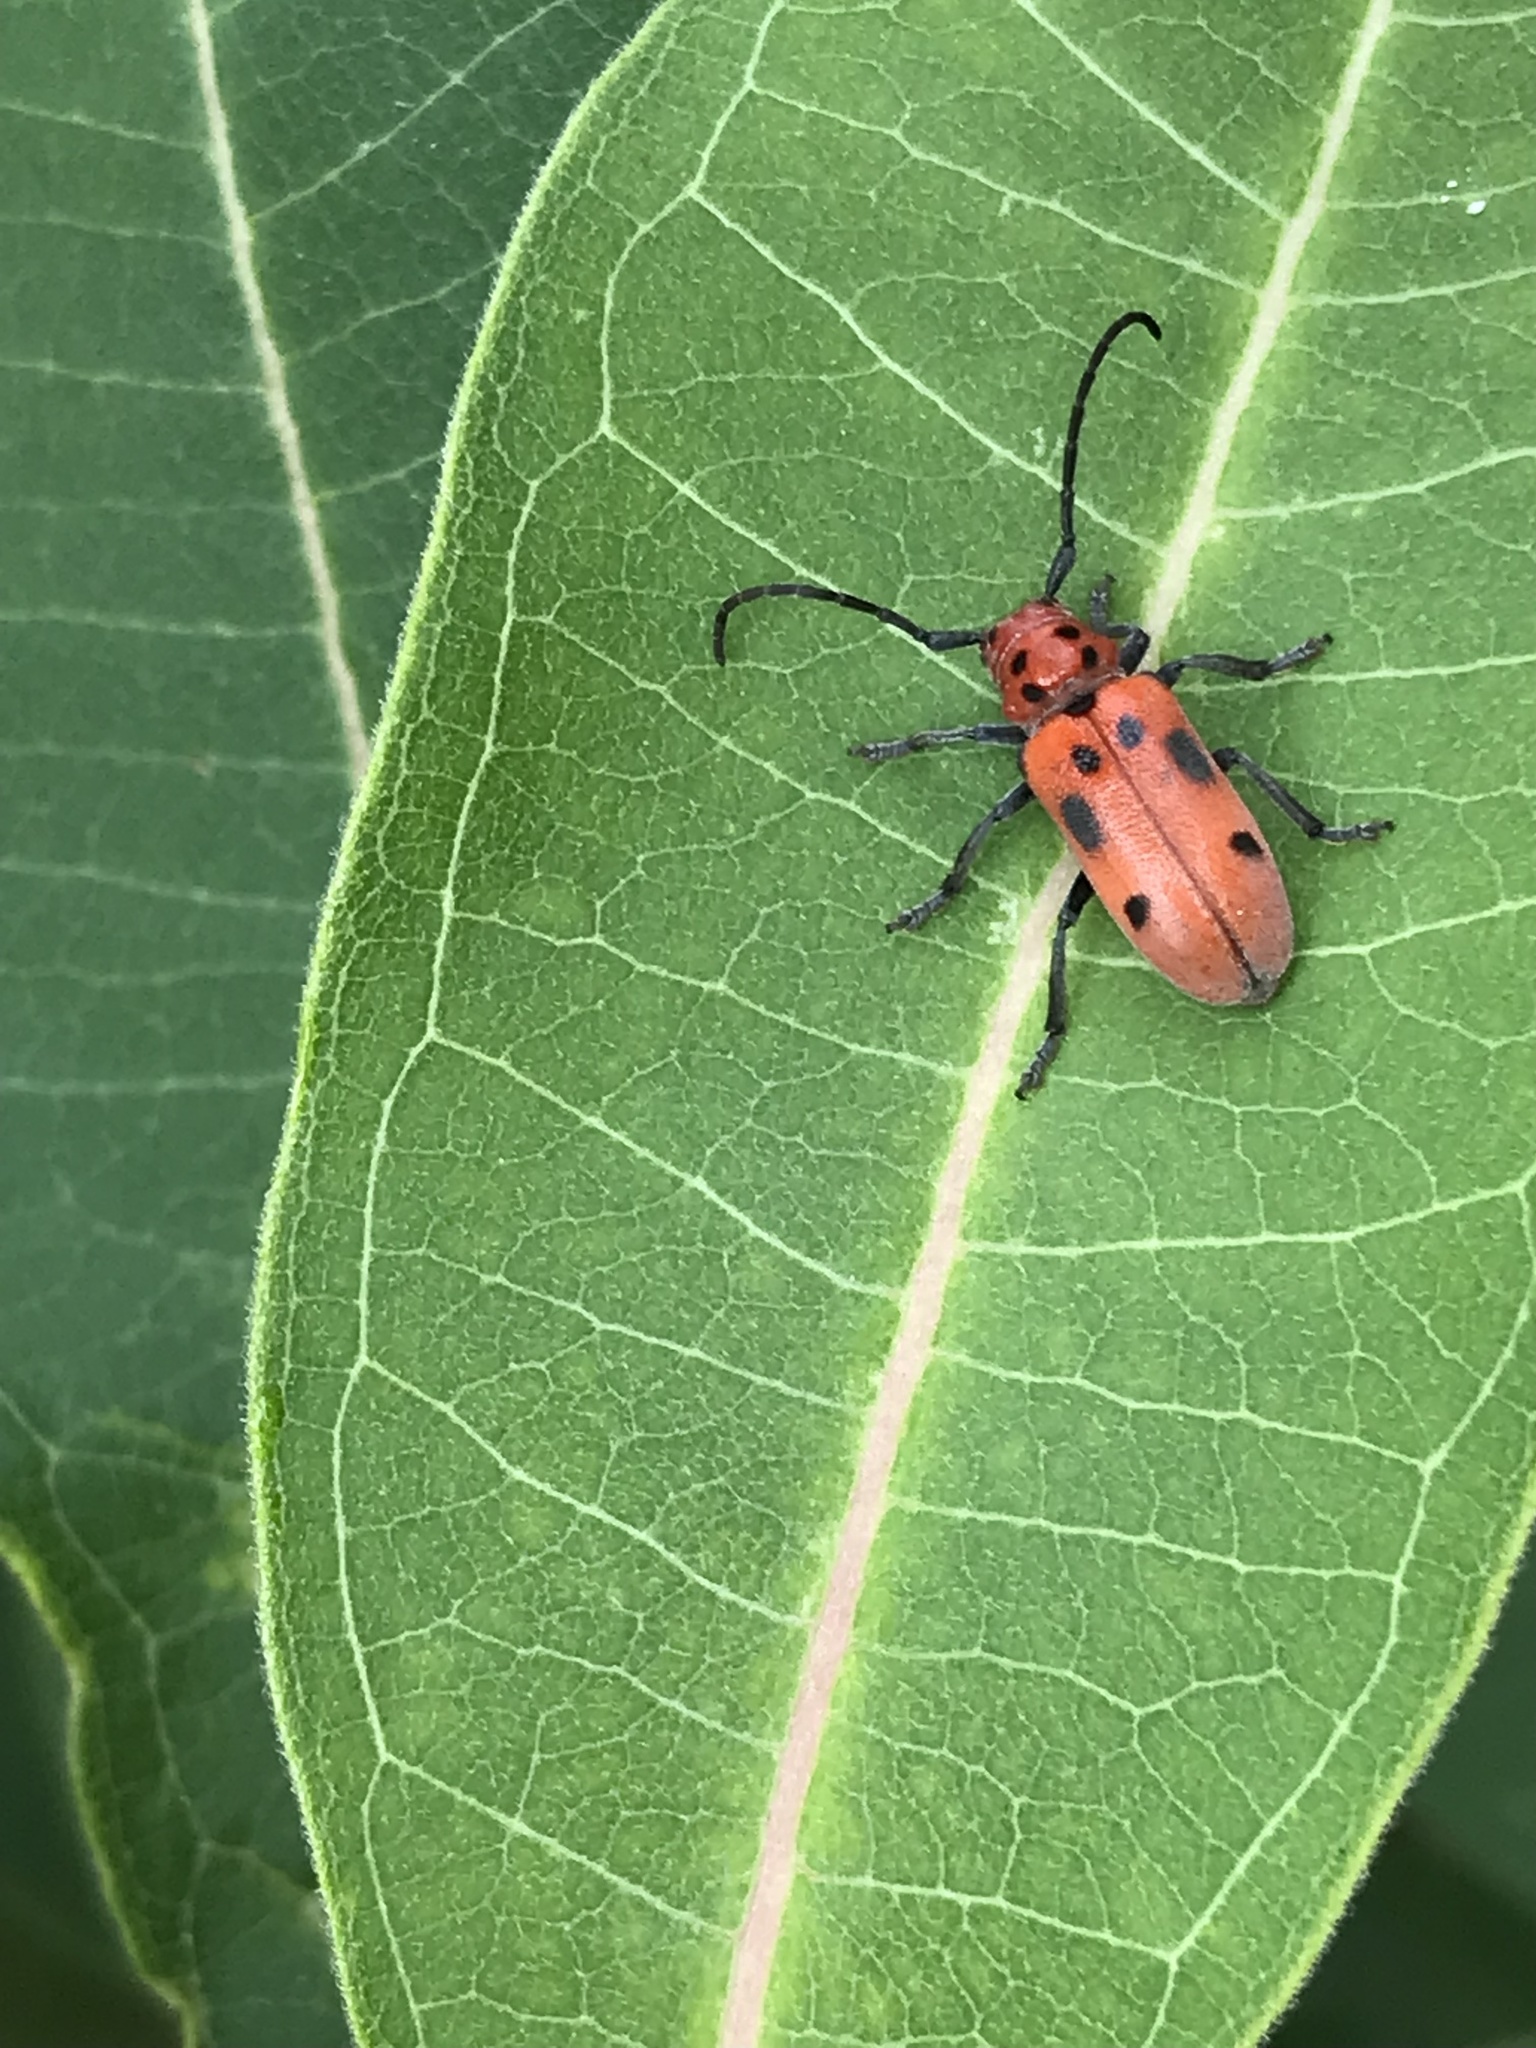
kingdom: Animalia
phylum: Arthropoda
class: Insecta
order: Coleoptera
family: Cerambycidae
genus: Tetraopes
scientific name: Tetraopes tetrophthalmus
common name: Red milkweed beetle
